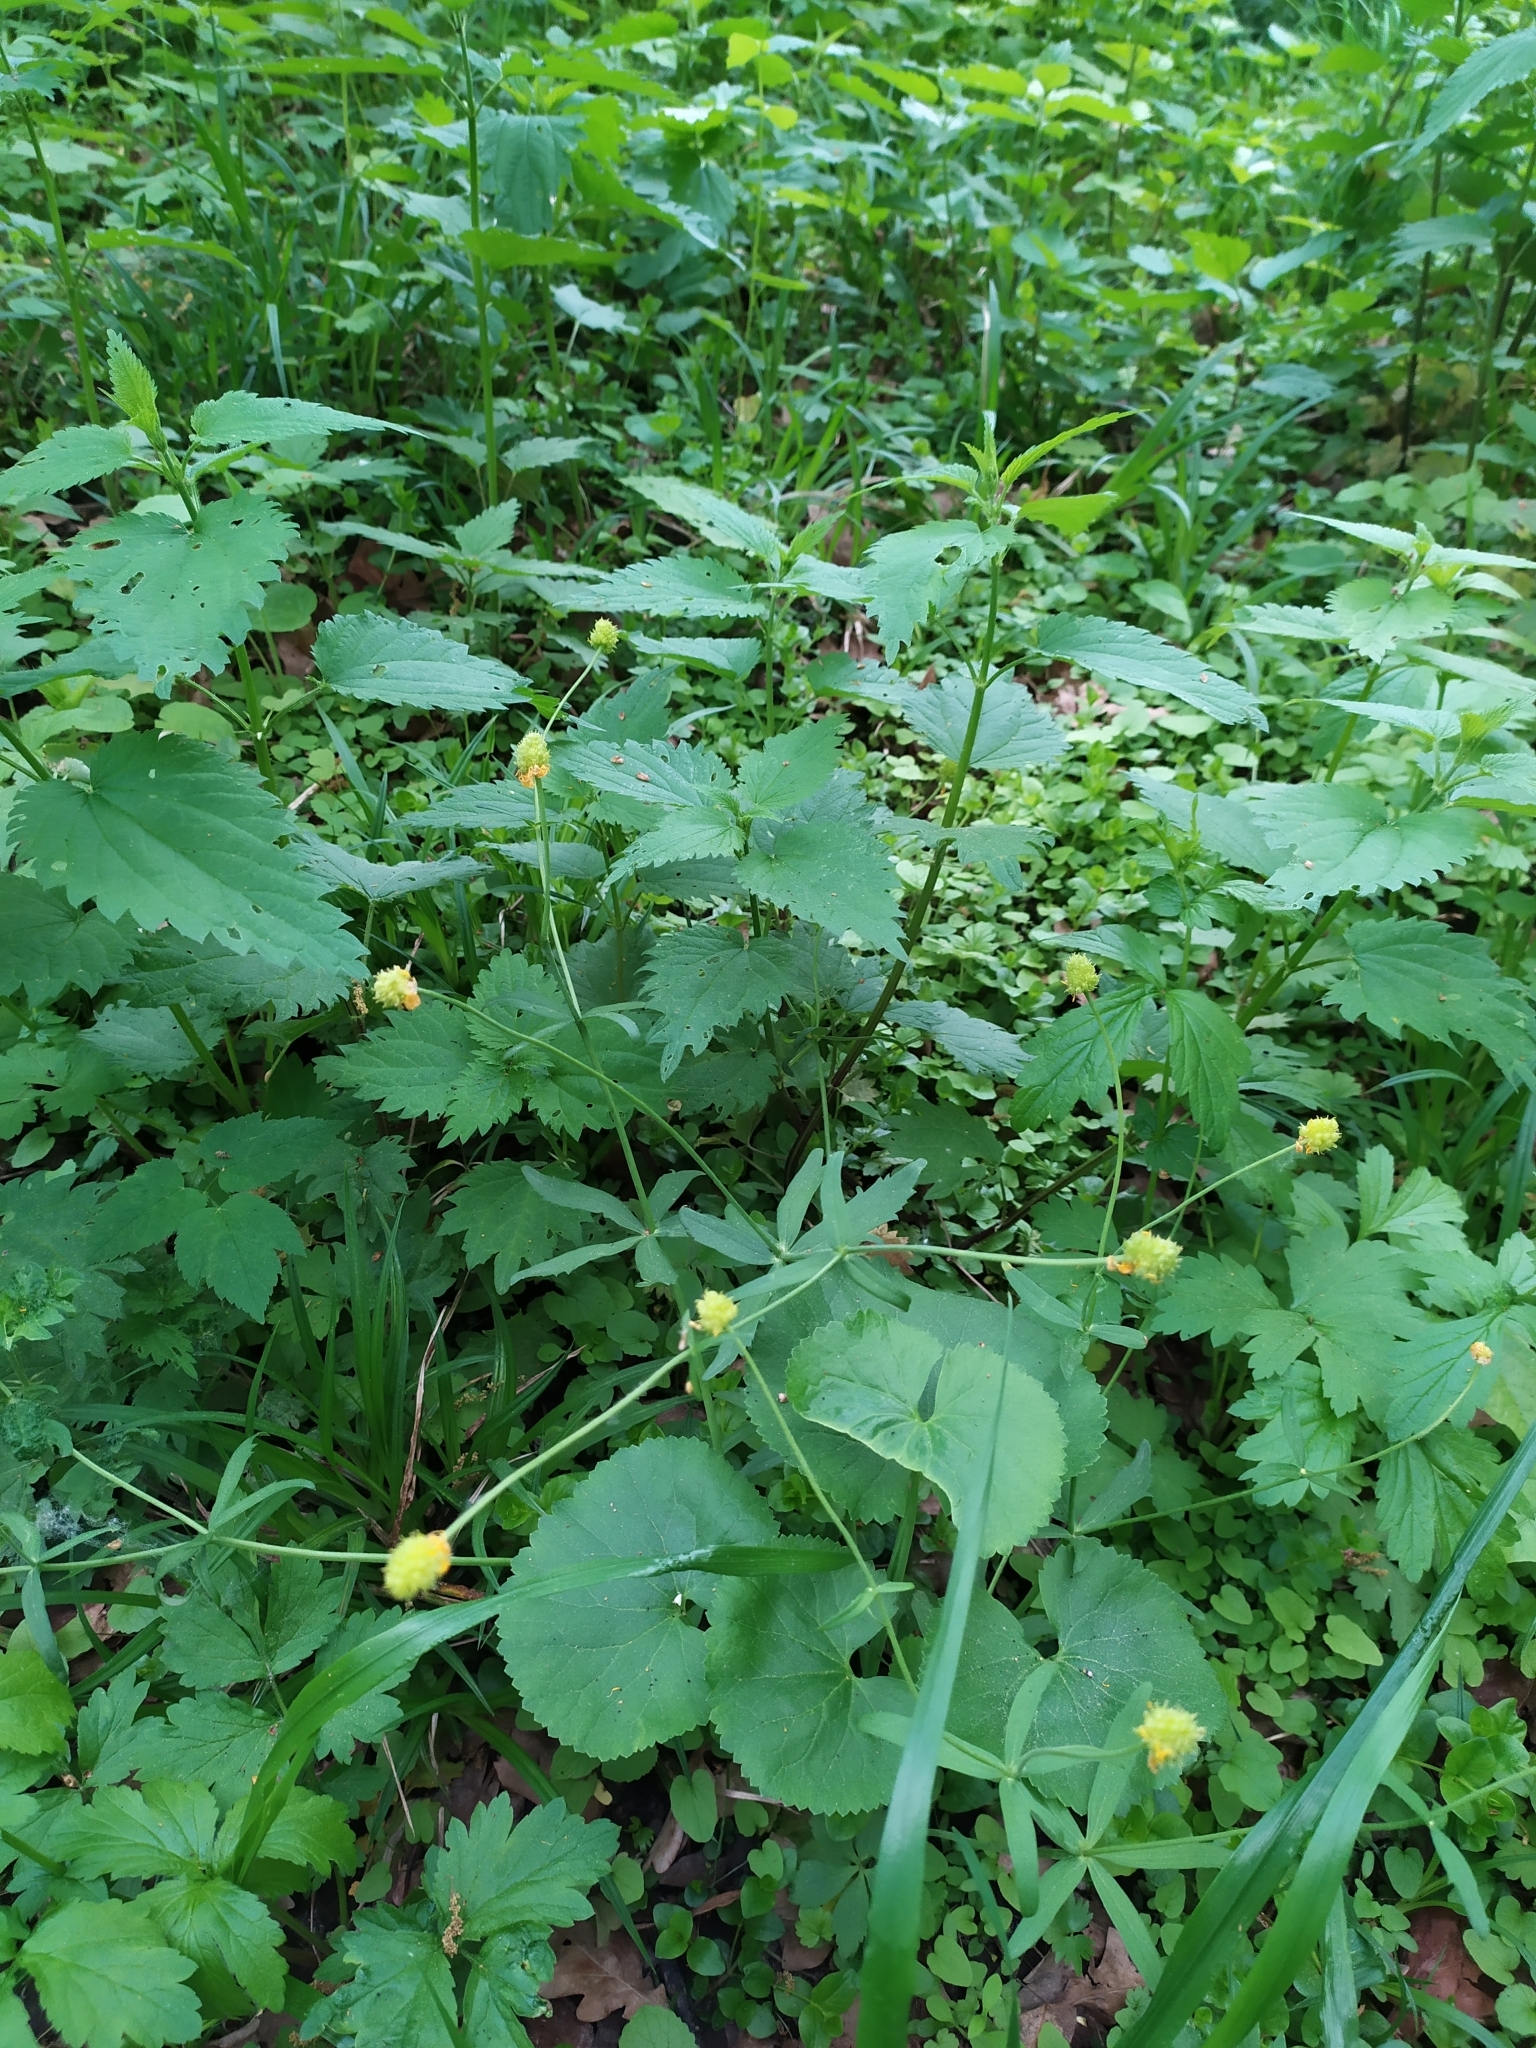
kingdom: Plantae
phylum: Tracheophyta
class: Magnoliopsida
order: Ranunculales
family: Ranunculaceae
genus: Ranunculus
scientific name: Ranunculus cassubicus
